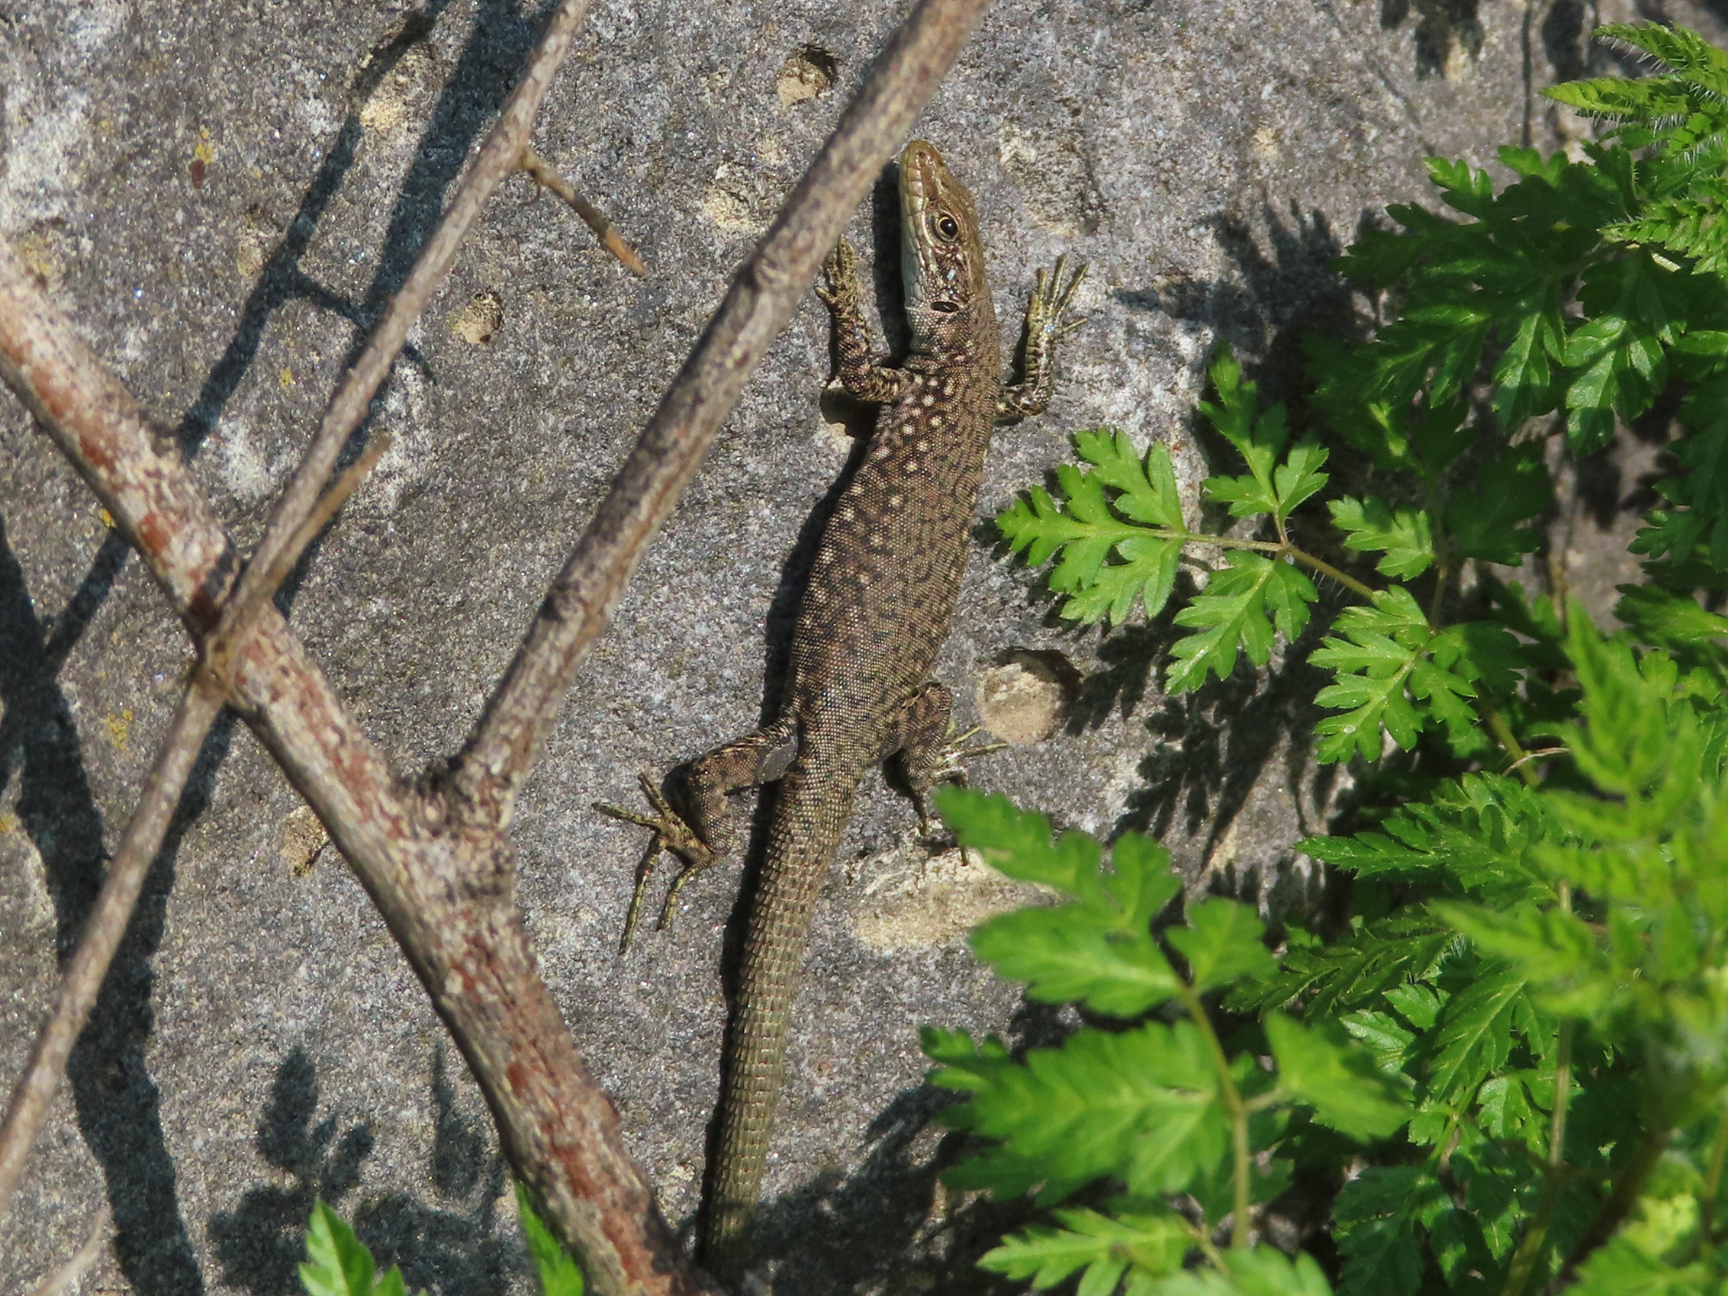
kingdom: Animalia
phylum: Chordata
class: Squamata
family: Lacertidae
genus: Darevskia
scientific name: Darevskia
